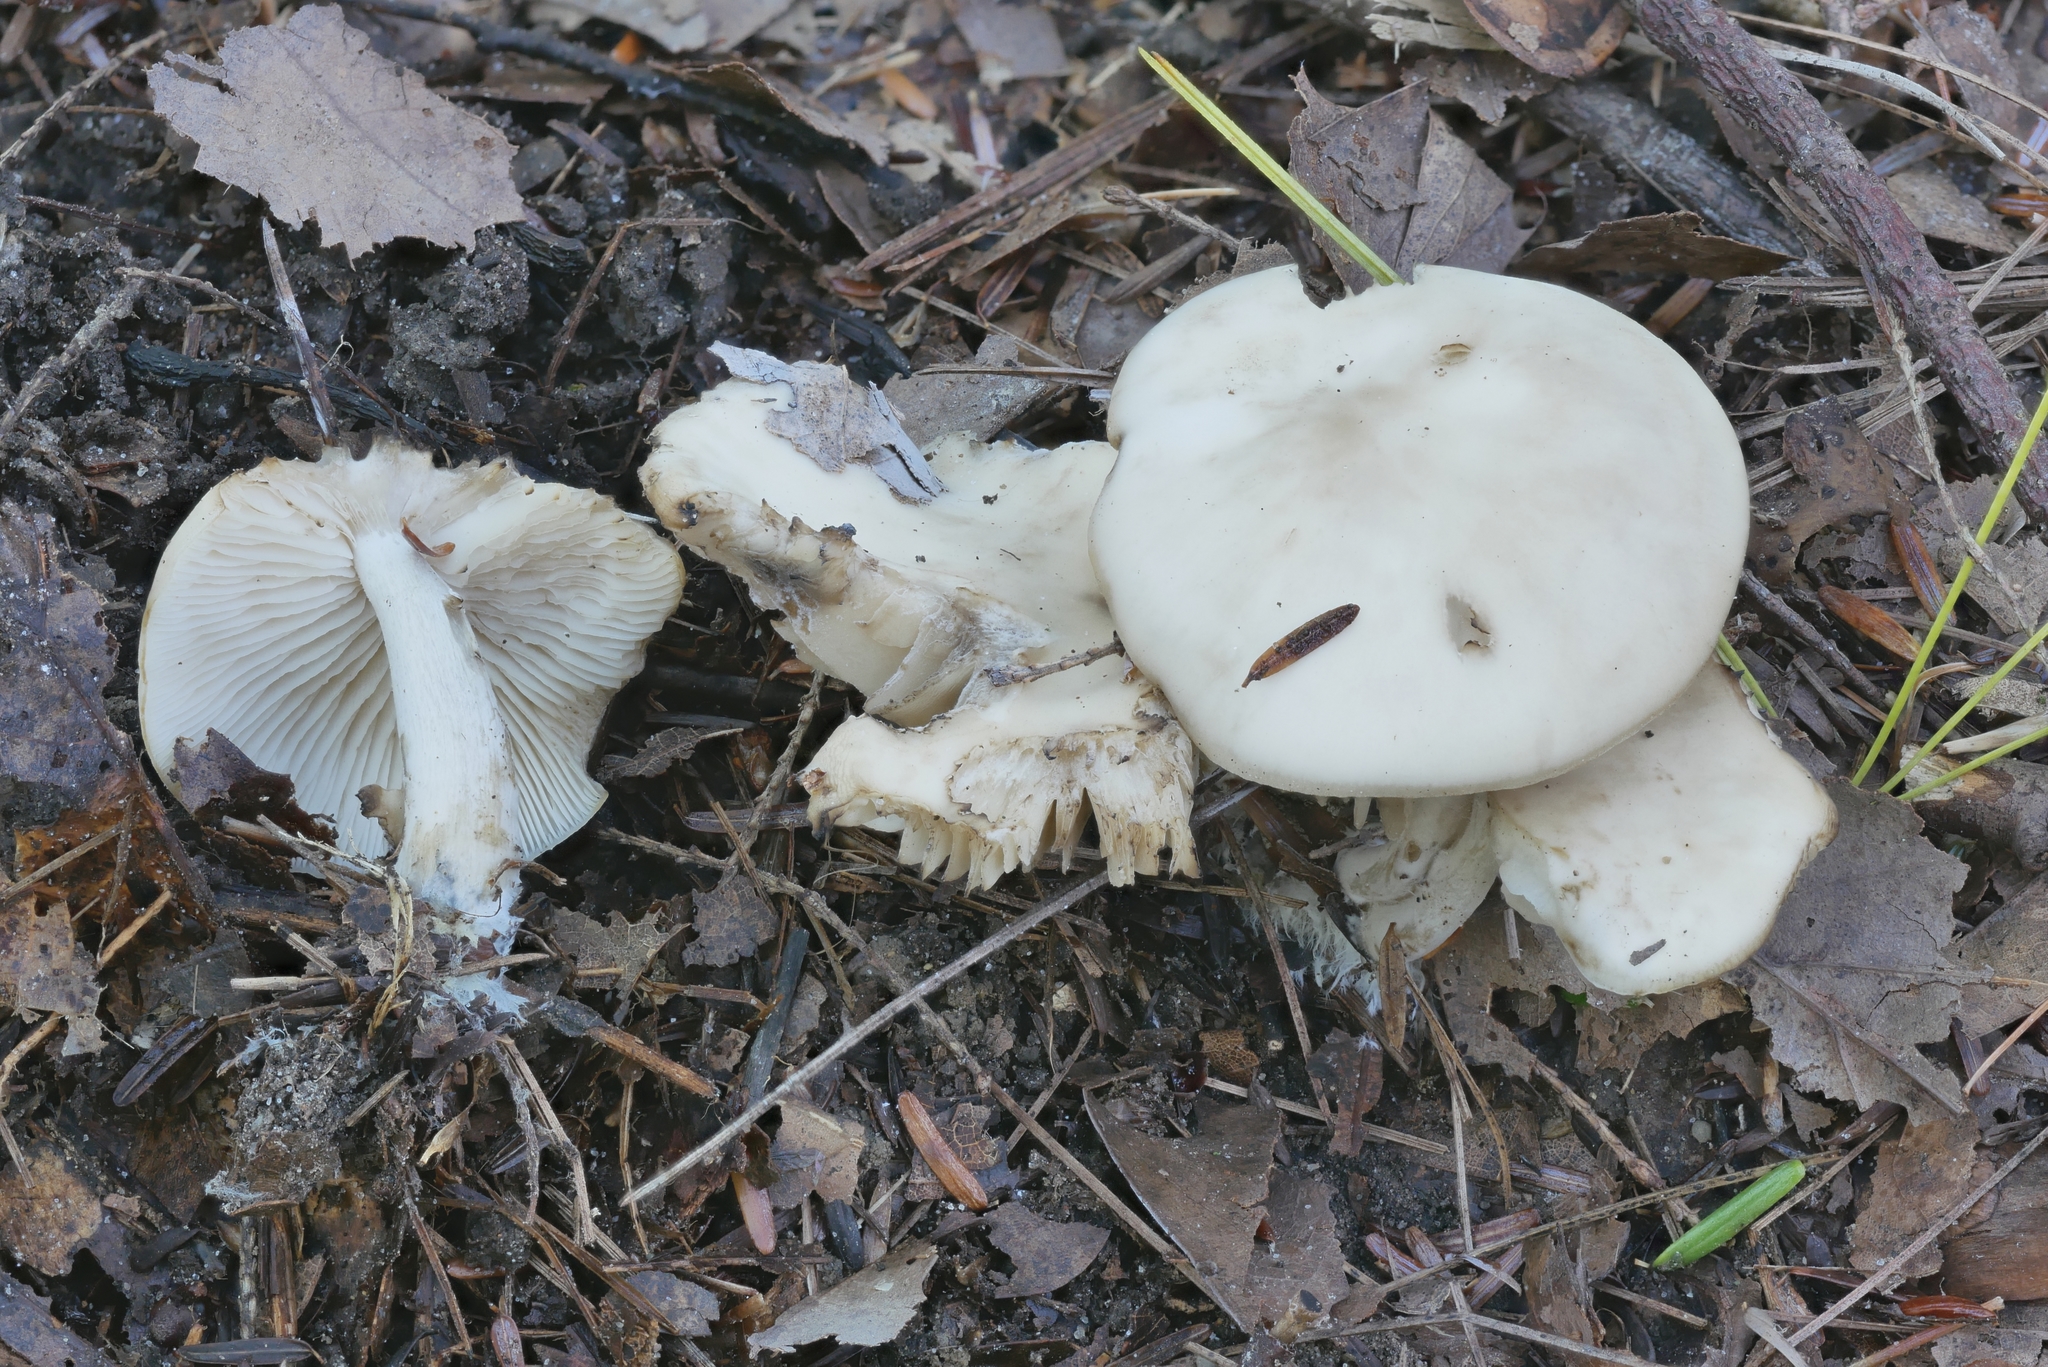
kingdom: Fungi
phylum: Basidiomycota
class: Agaricomycetes
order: Agaricales
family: Lyophyllaceae
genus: Lyophyllum
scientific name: Lyophyllum aemiliae
